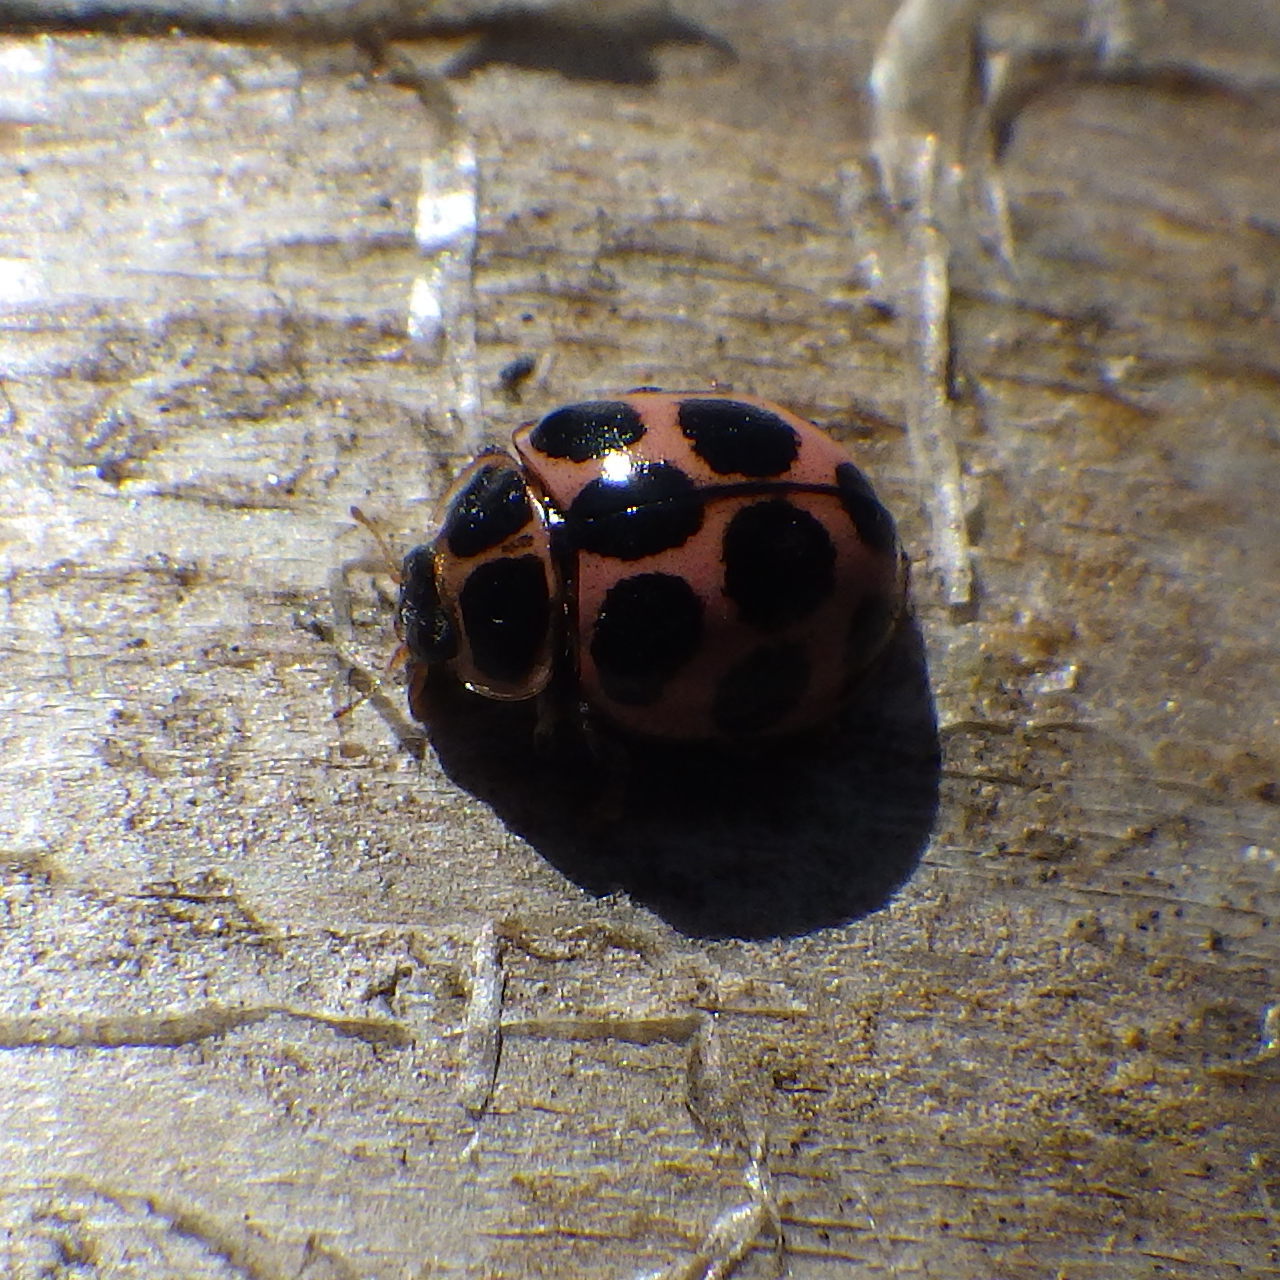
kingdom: Animalia
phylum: Arthropoda
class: Insecta
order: Coleoptera
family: Coccinellidae
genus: Calvia
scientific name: Calvia quatuordecimguttata
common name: Cream-spot ladybird
